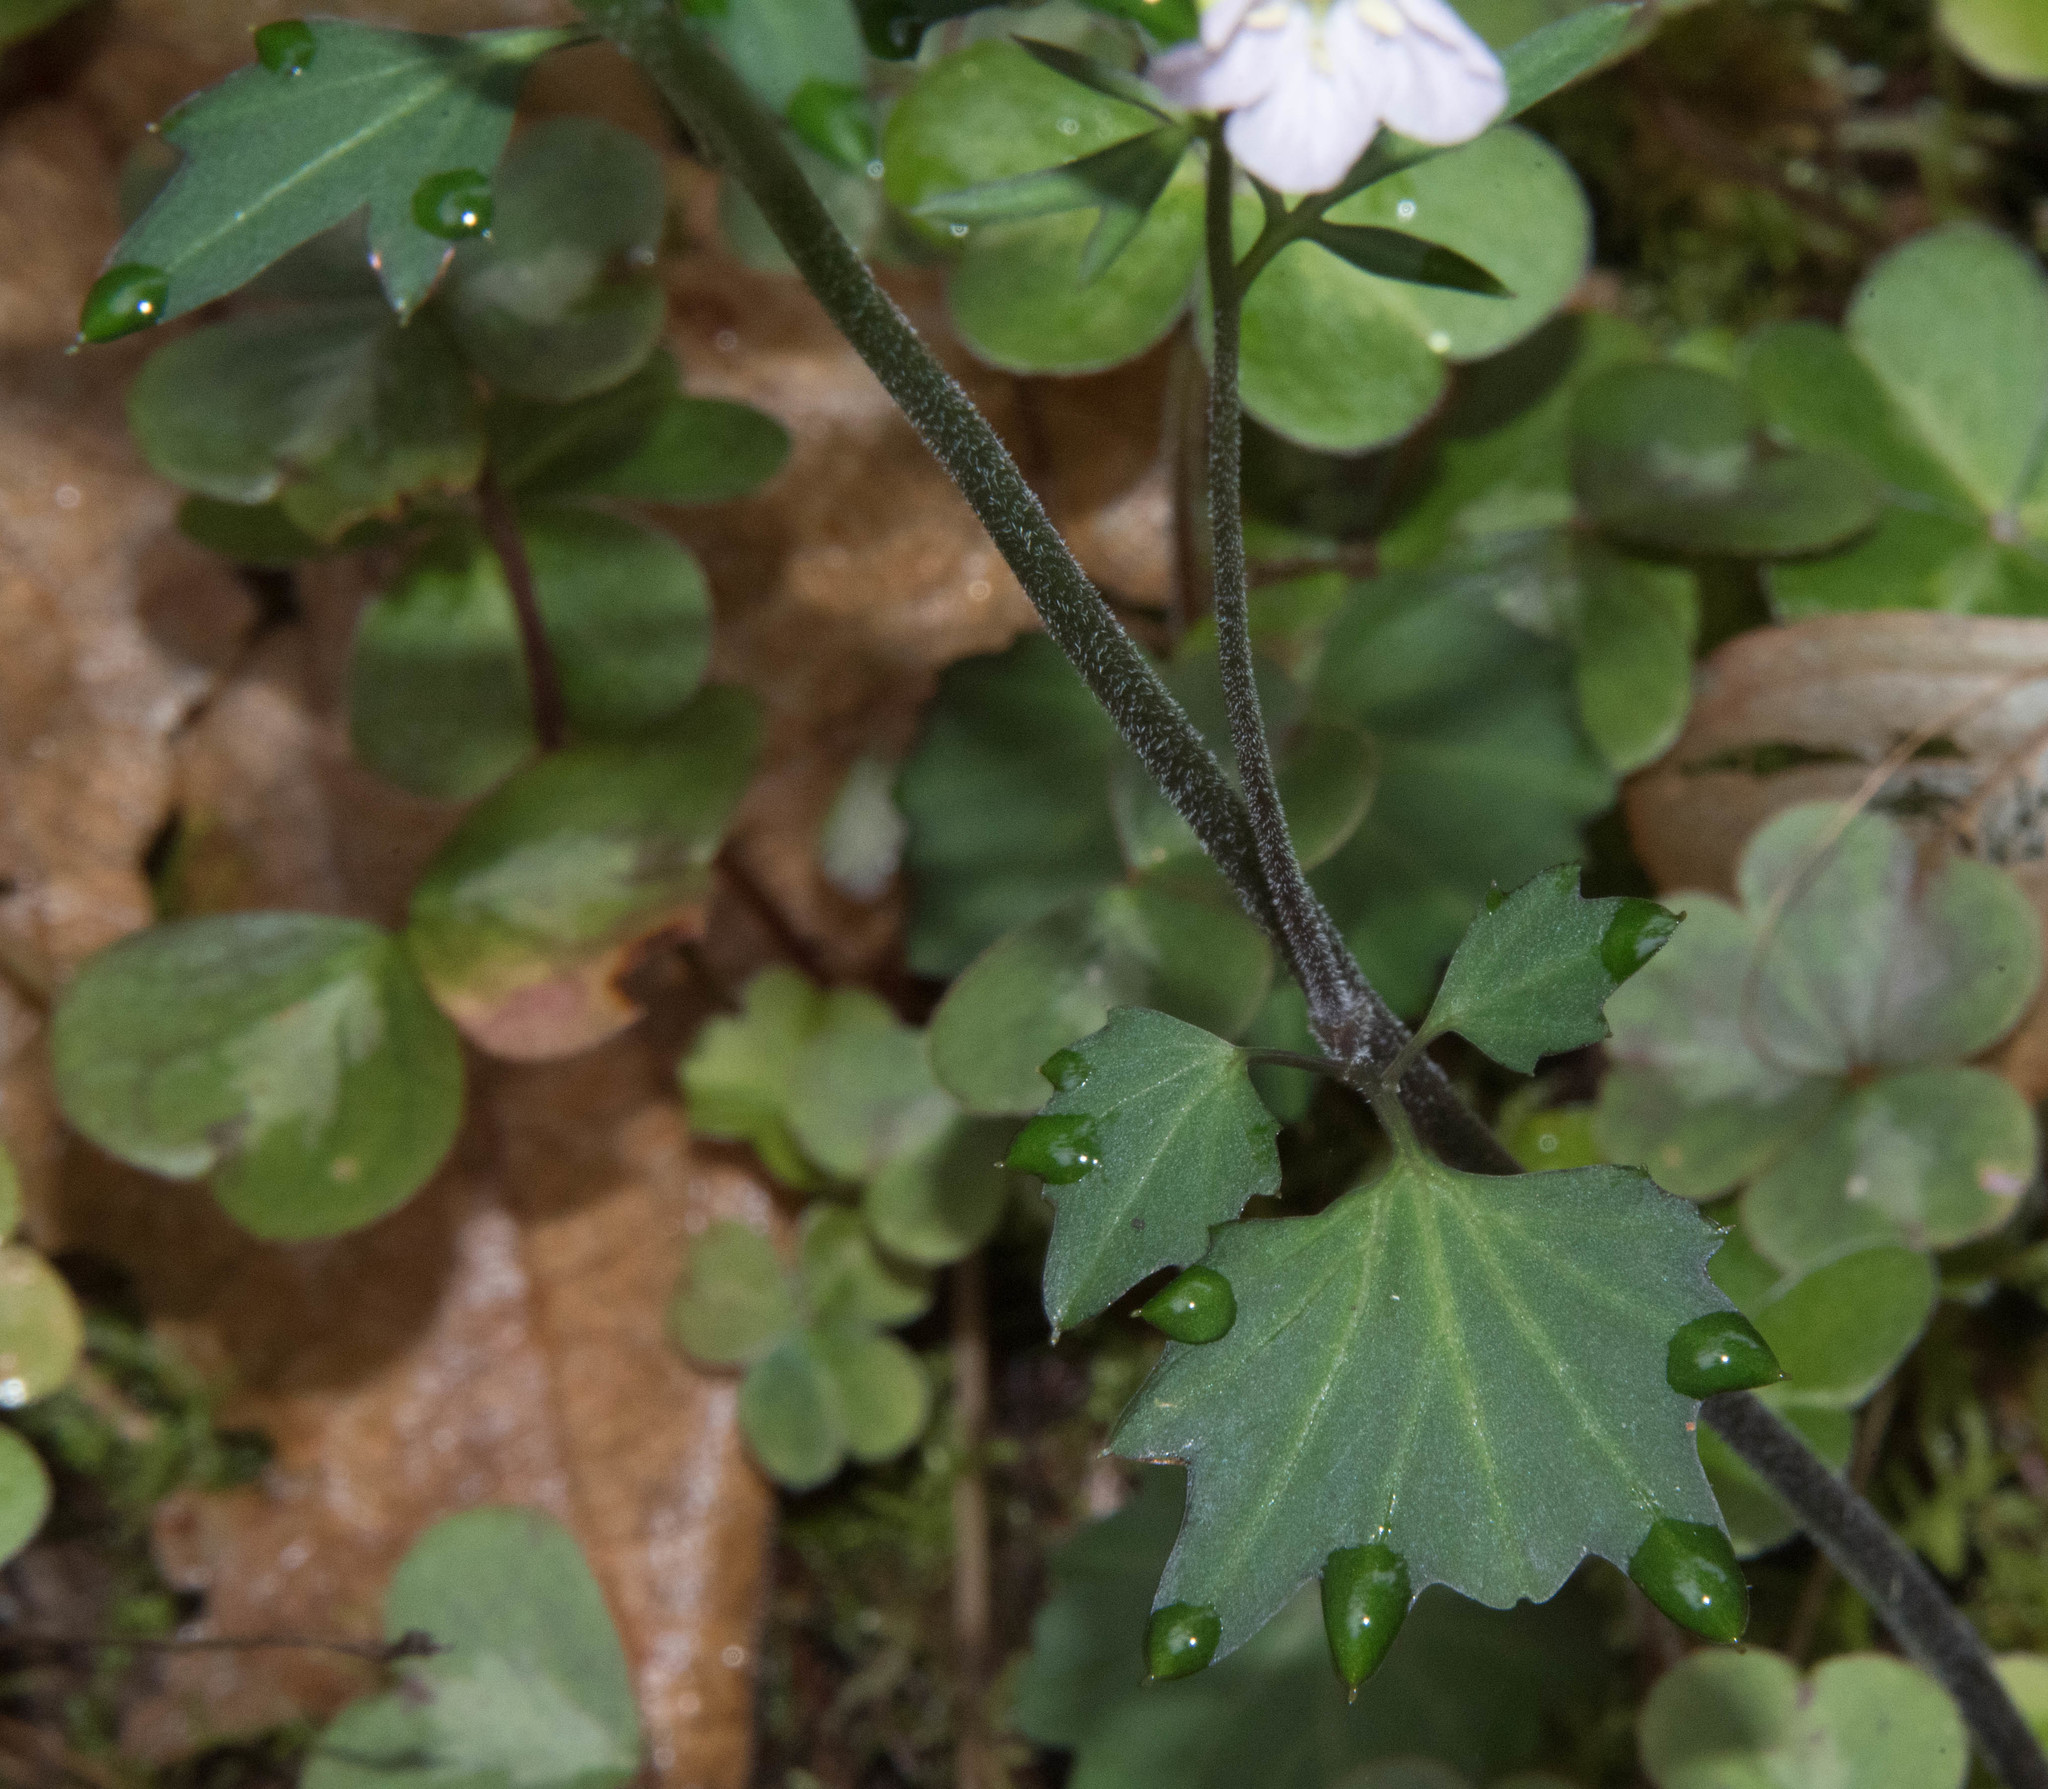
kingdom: Plantae
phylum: Tracheophyta
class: Magnoliopsida
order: Brassicales
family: Brassicaceae
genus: Cardamine
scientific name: Cardamine californica
